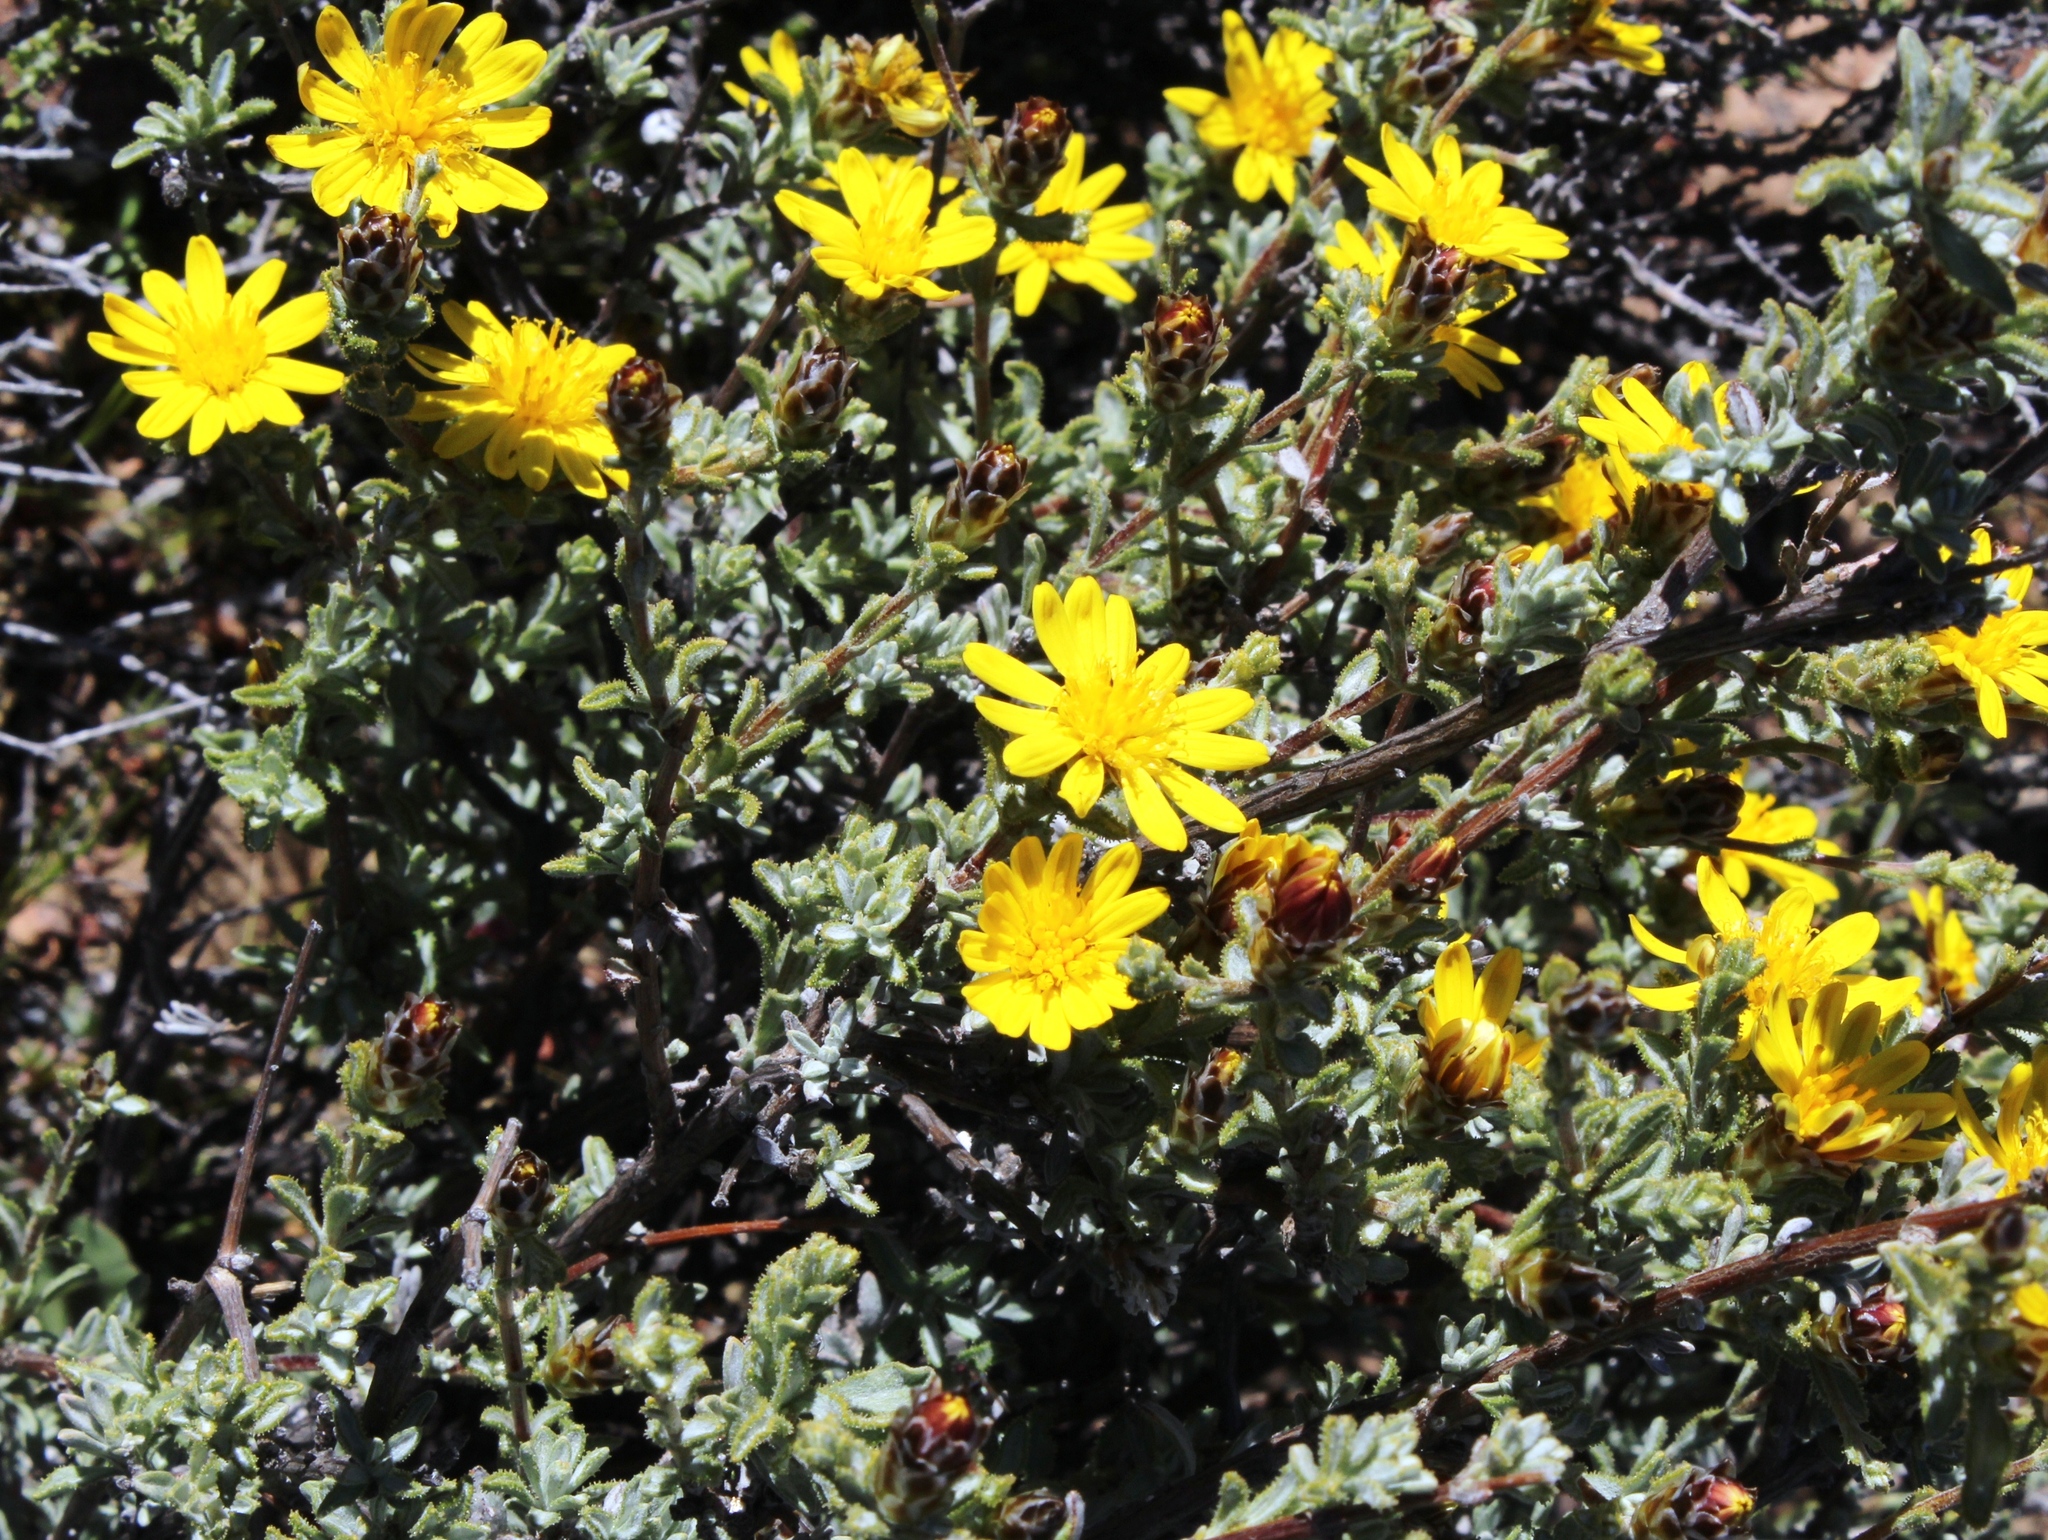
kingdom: Plantae
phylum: Tracheophyta
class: Magnoliopsida
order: Asterales
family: Asteraceae
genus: Oedera
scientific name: Oedera spinescens
